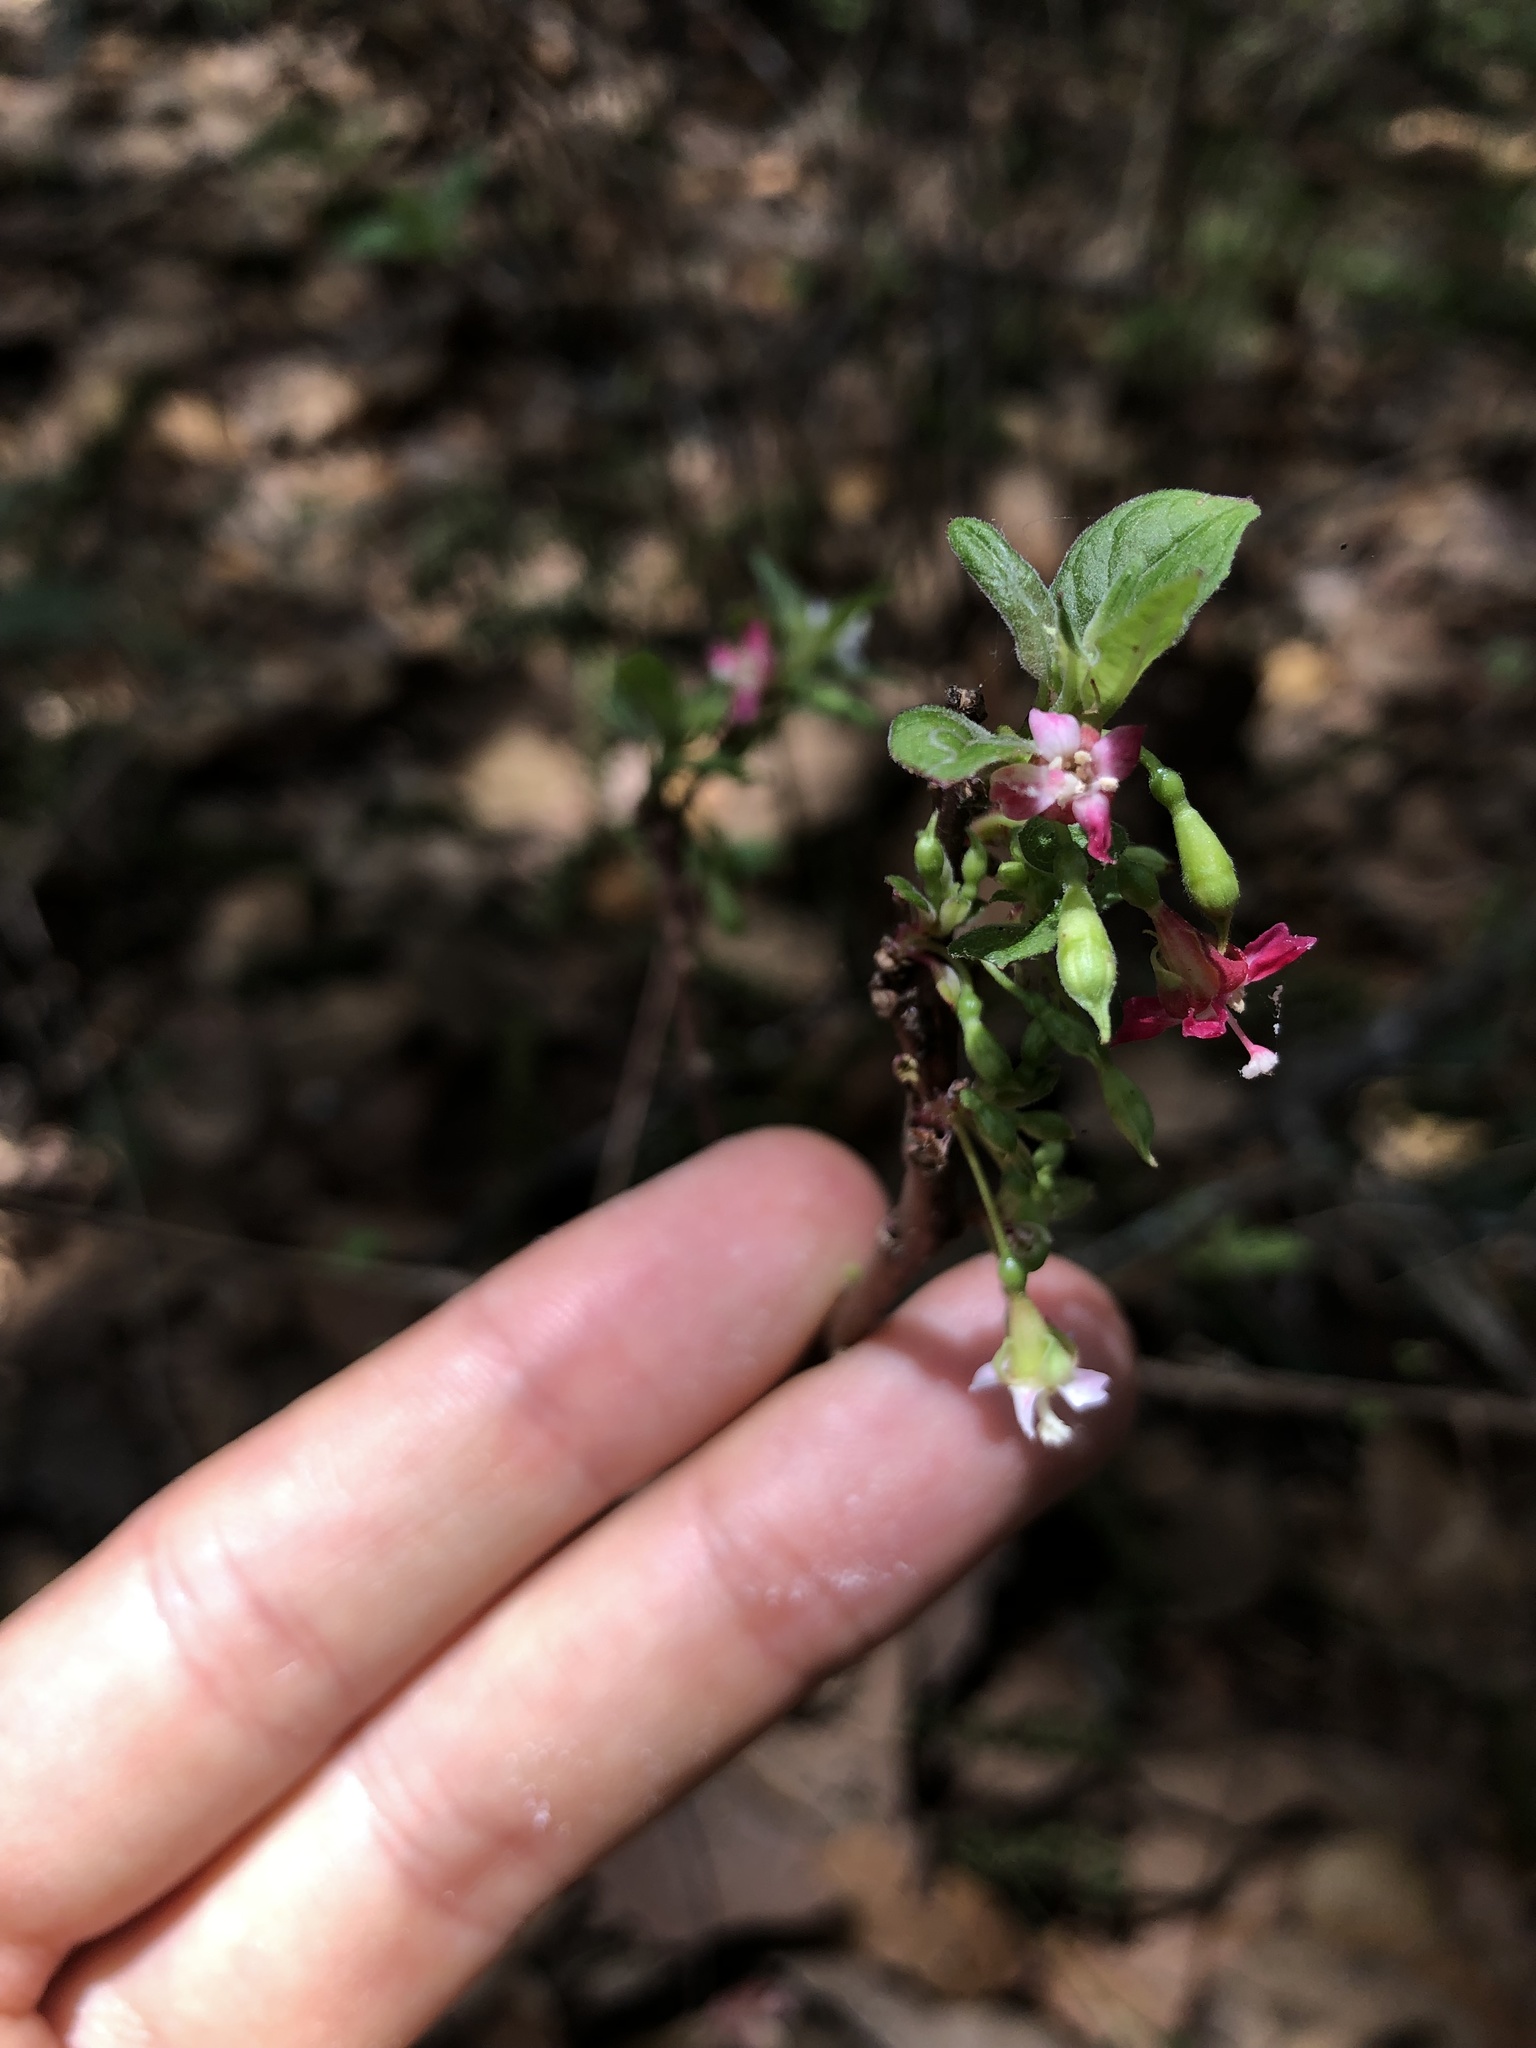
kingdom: Plantae
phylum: Tracheophyta
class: Magnoliopsida
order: Myrtales
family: Onagraceae
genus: Fuchsia
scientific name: Fuchsia thymifolia
